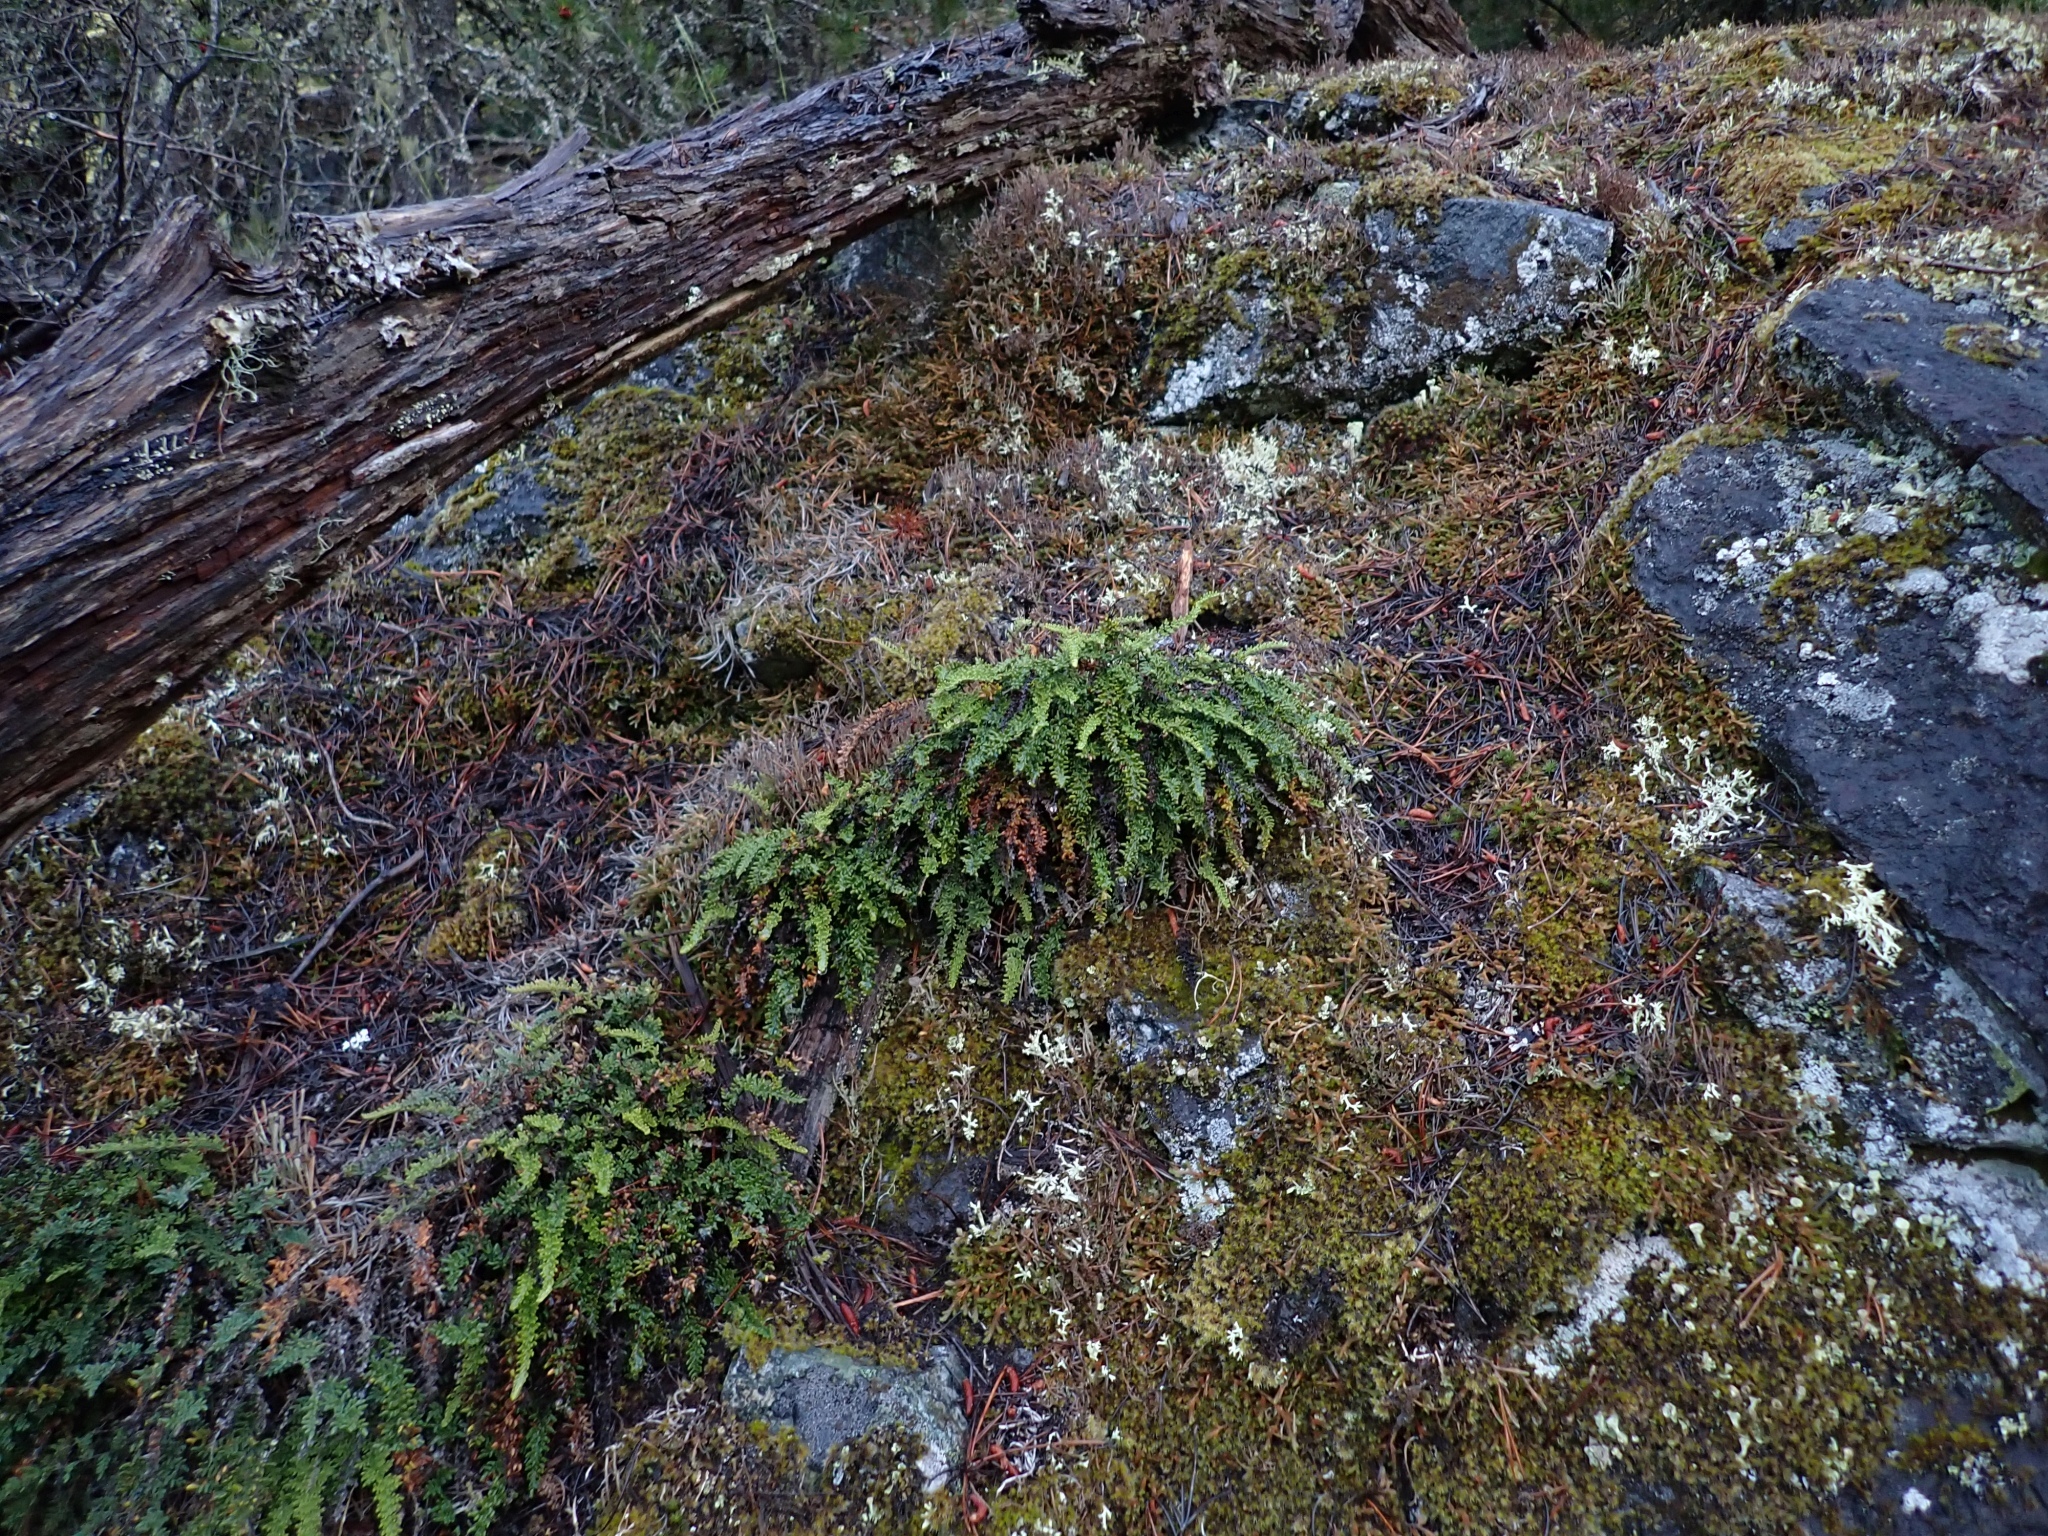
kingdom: Plantae
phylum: Tracheophyta
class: Polypodiopsida
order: Polypodiales
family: Pteridaceae
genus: Myriopteris
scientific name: Myriopteris gracillima
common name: Lace fern
